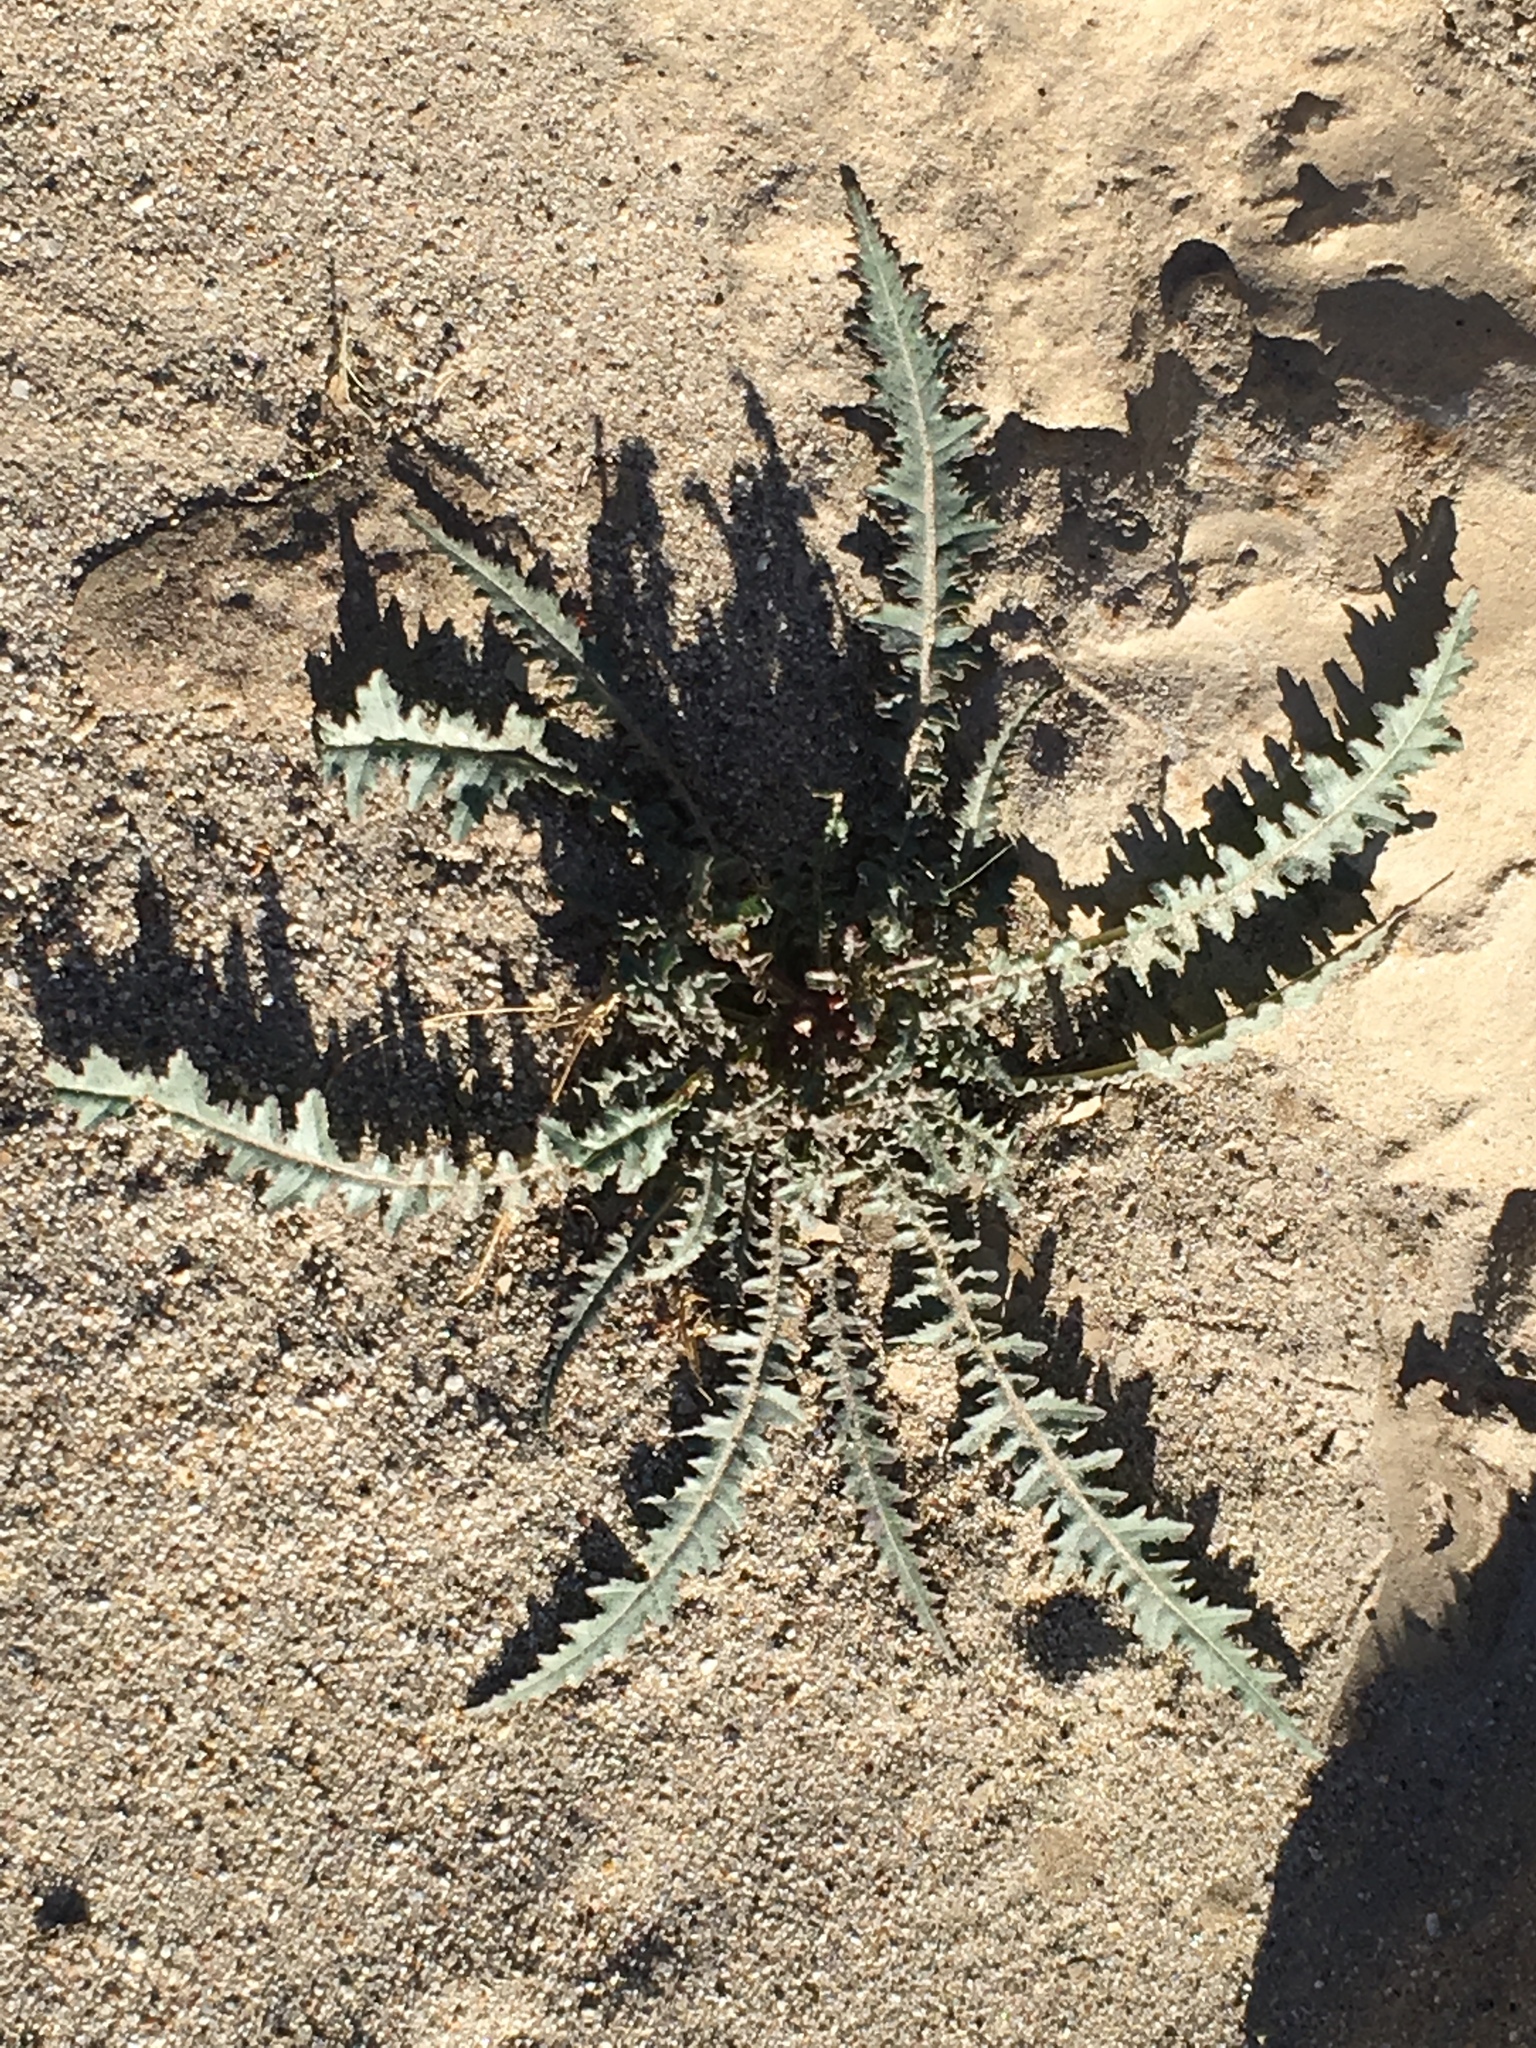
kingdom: Plantae
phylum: Tracheophyta
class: Magnoliopsida
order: Myrtales
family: Onagraceae
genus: Eulobus
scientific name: Eulobus californicus
